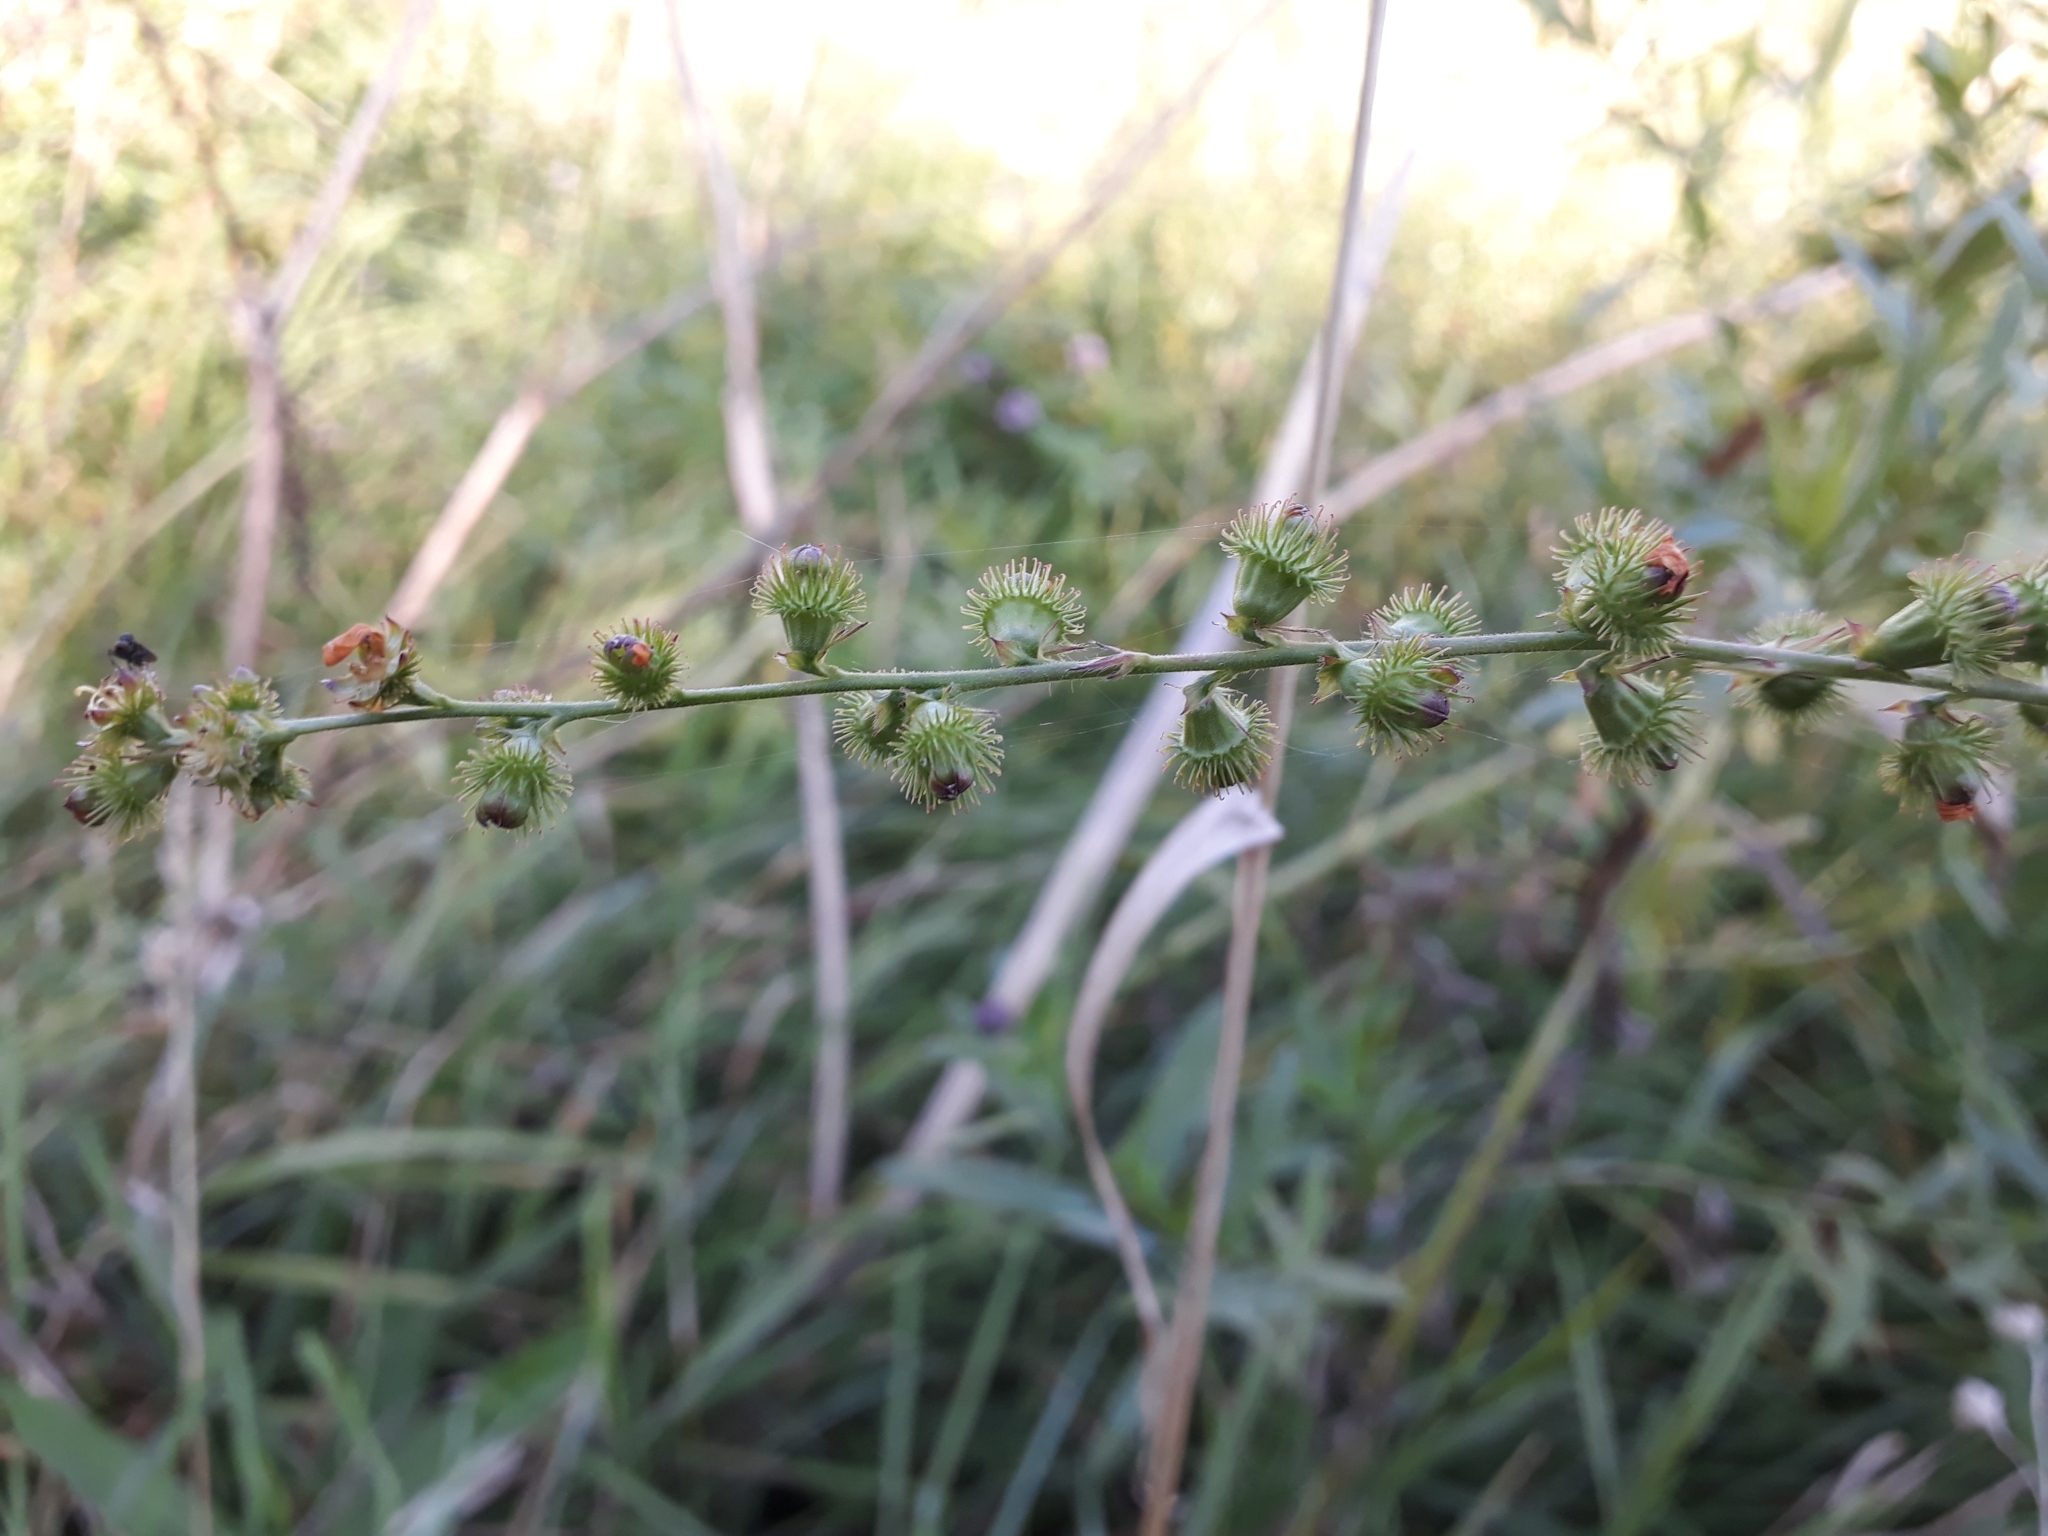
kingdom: Plantae
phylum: Tracheophyta
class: Magnoliopsida
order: Rosales
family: Rosaceae
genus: Agrimonia
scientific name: Agrimonia eupatoria
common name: Agrimony
